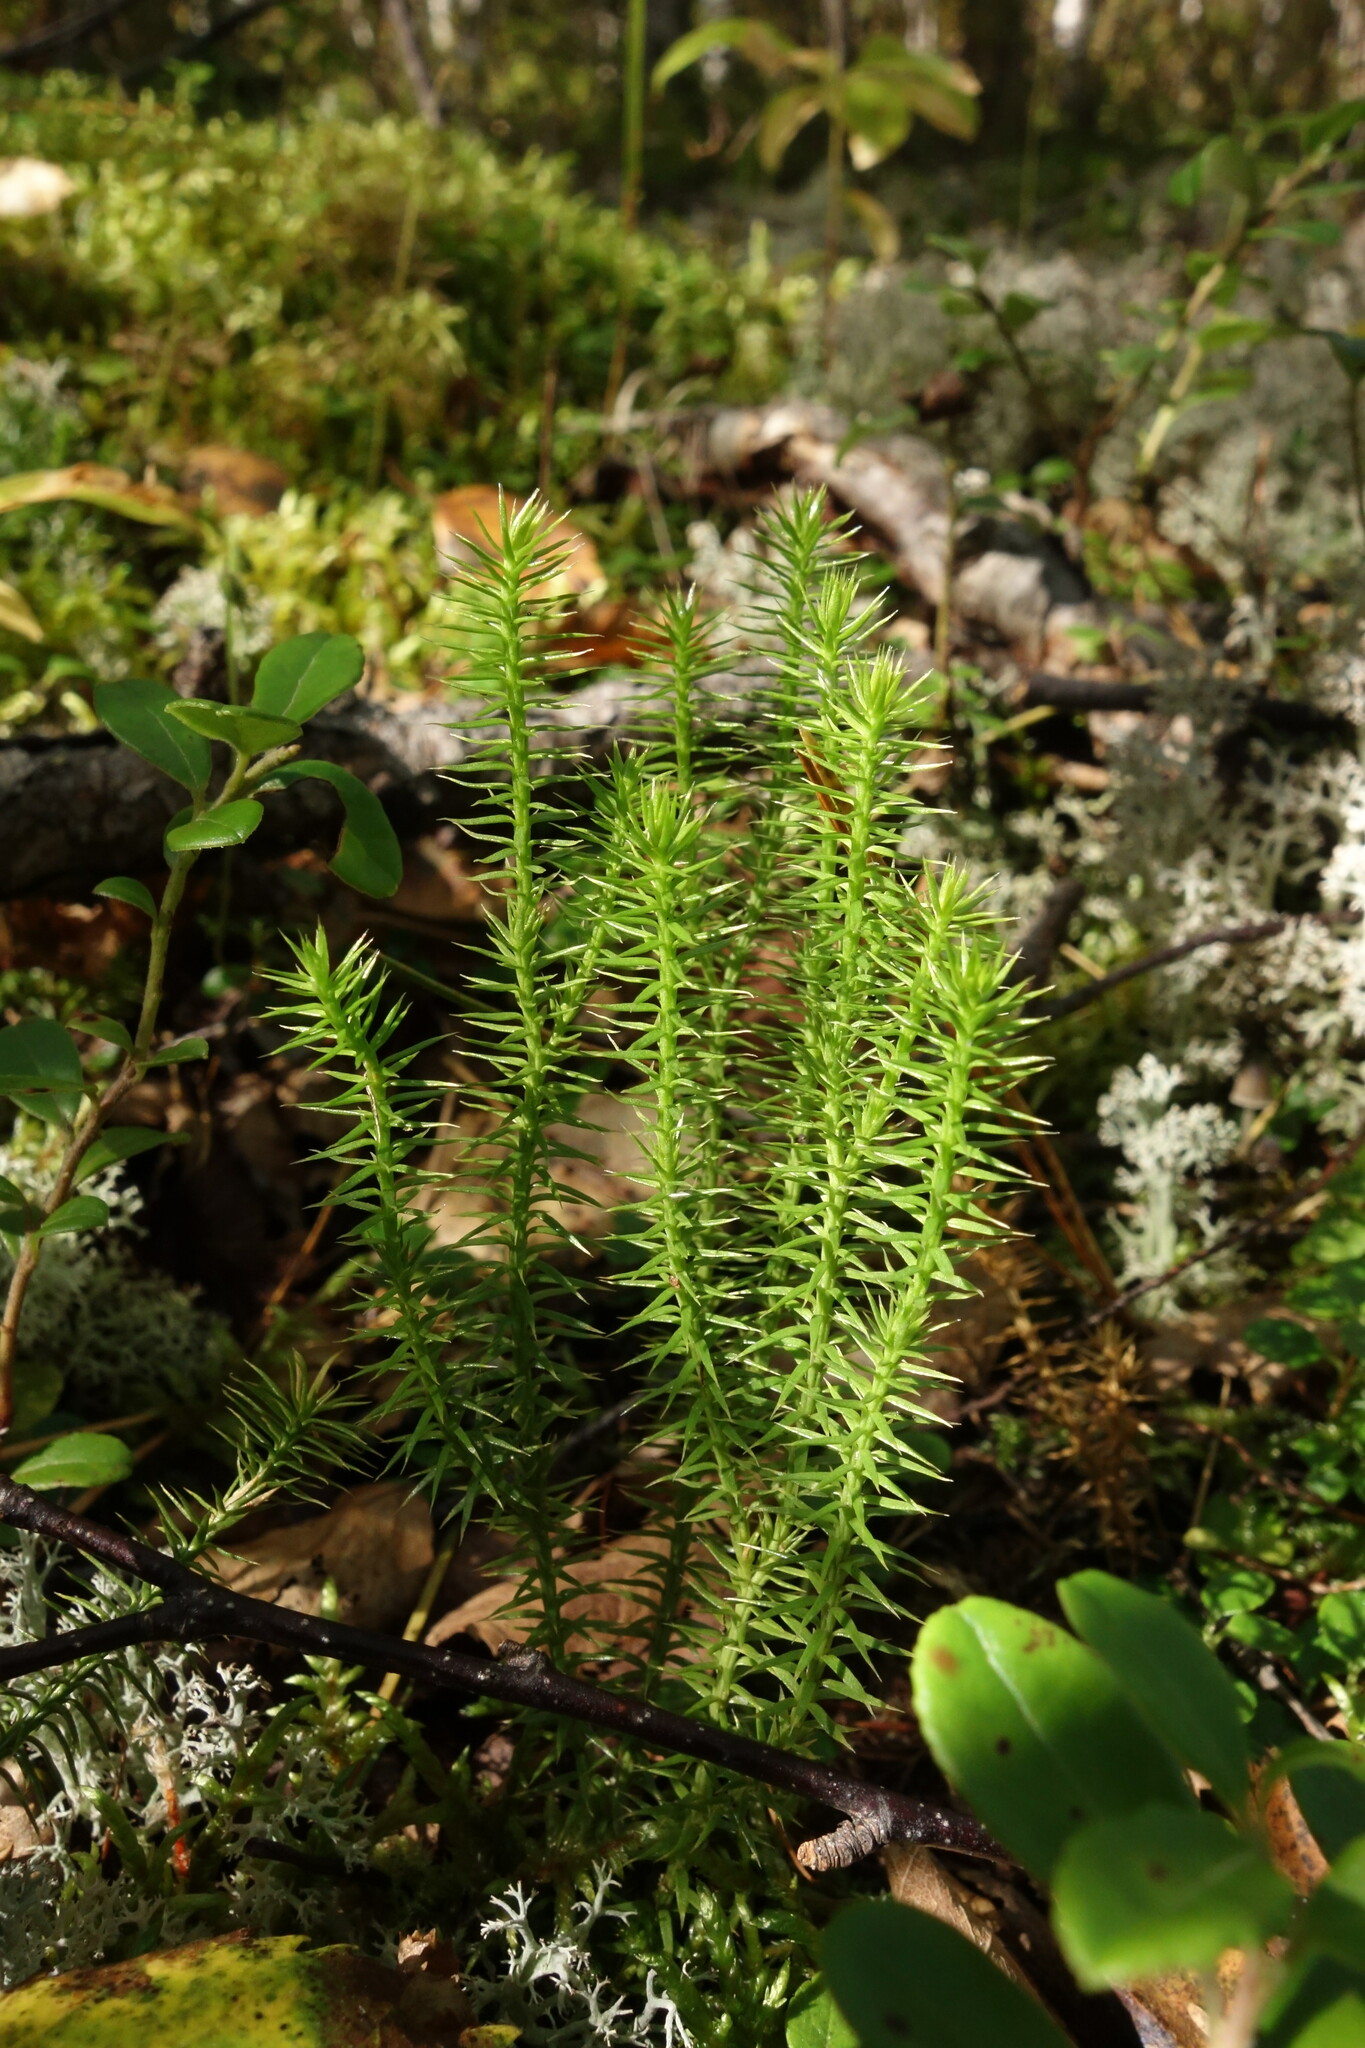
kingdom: Plantae
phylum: Tracheophyta
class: Lycopodiopsida
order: Lycopodiales
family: Lycopodiaceae
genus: Spinulum
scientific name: Spinulum annotinum
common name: Interrupted club-moss
